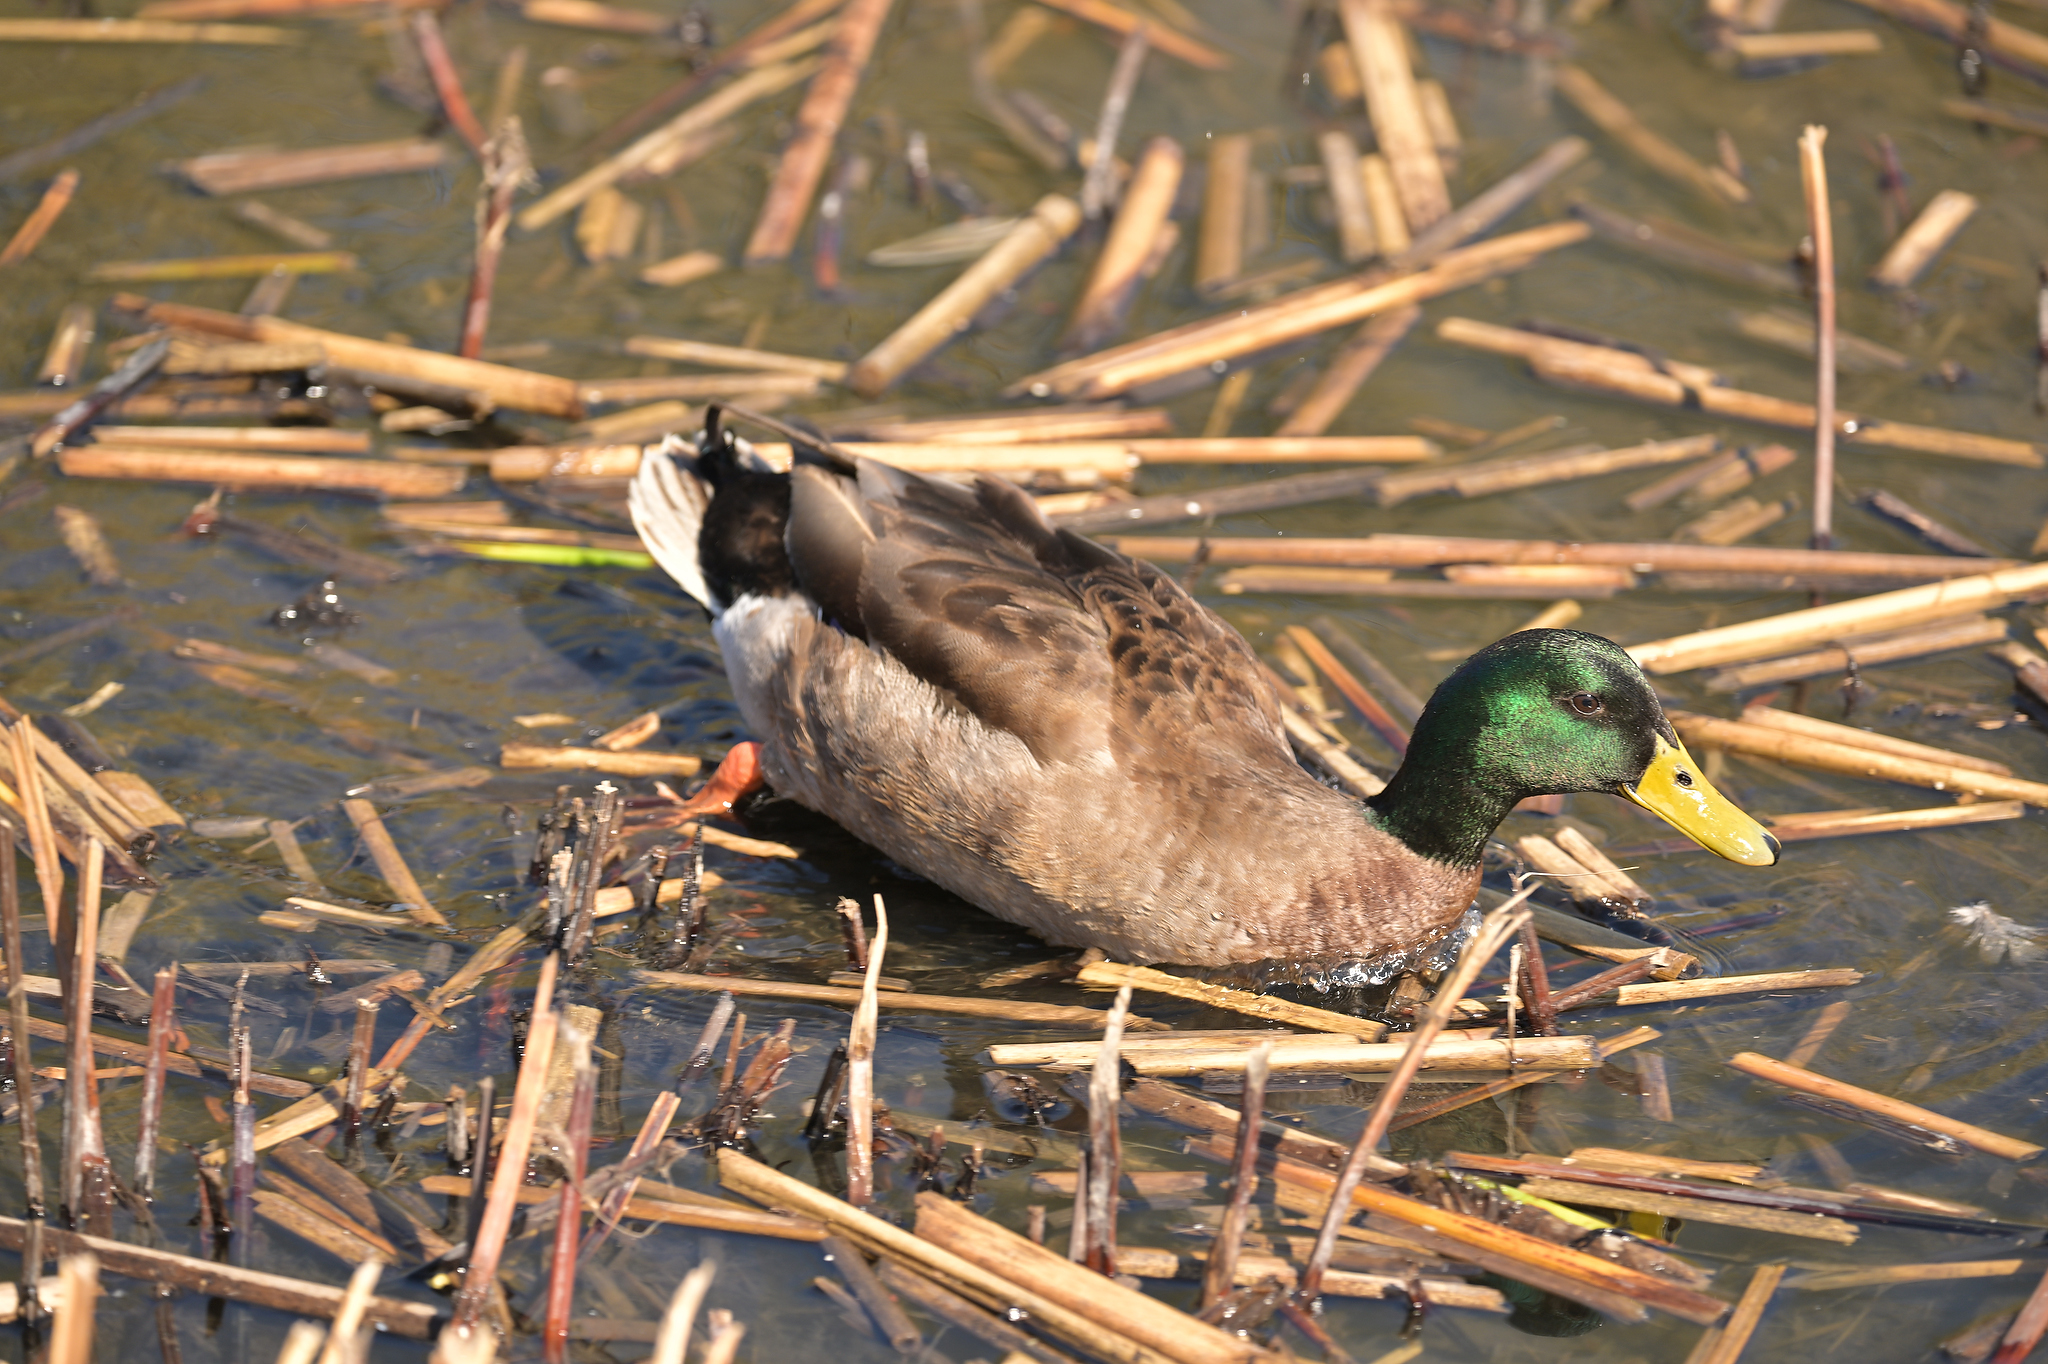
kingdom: Animalia
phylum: Chordata
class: Aves
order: Anseriformes
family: Anatidae
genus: Anas
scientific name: Anas platyrhynchos
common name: Mallard
